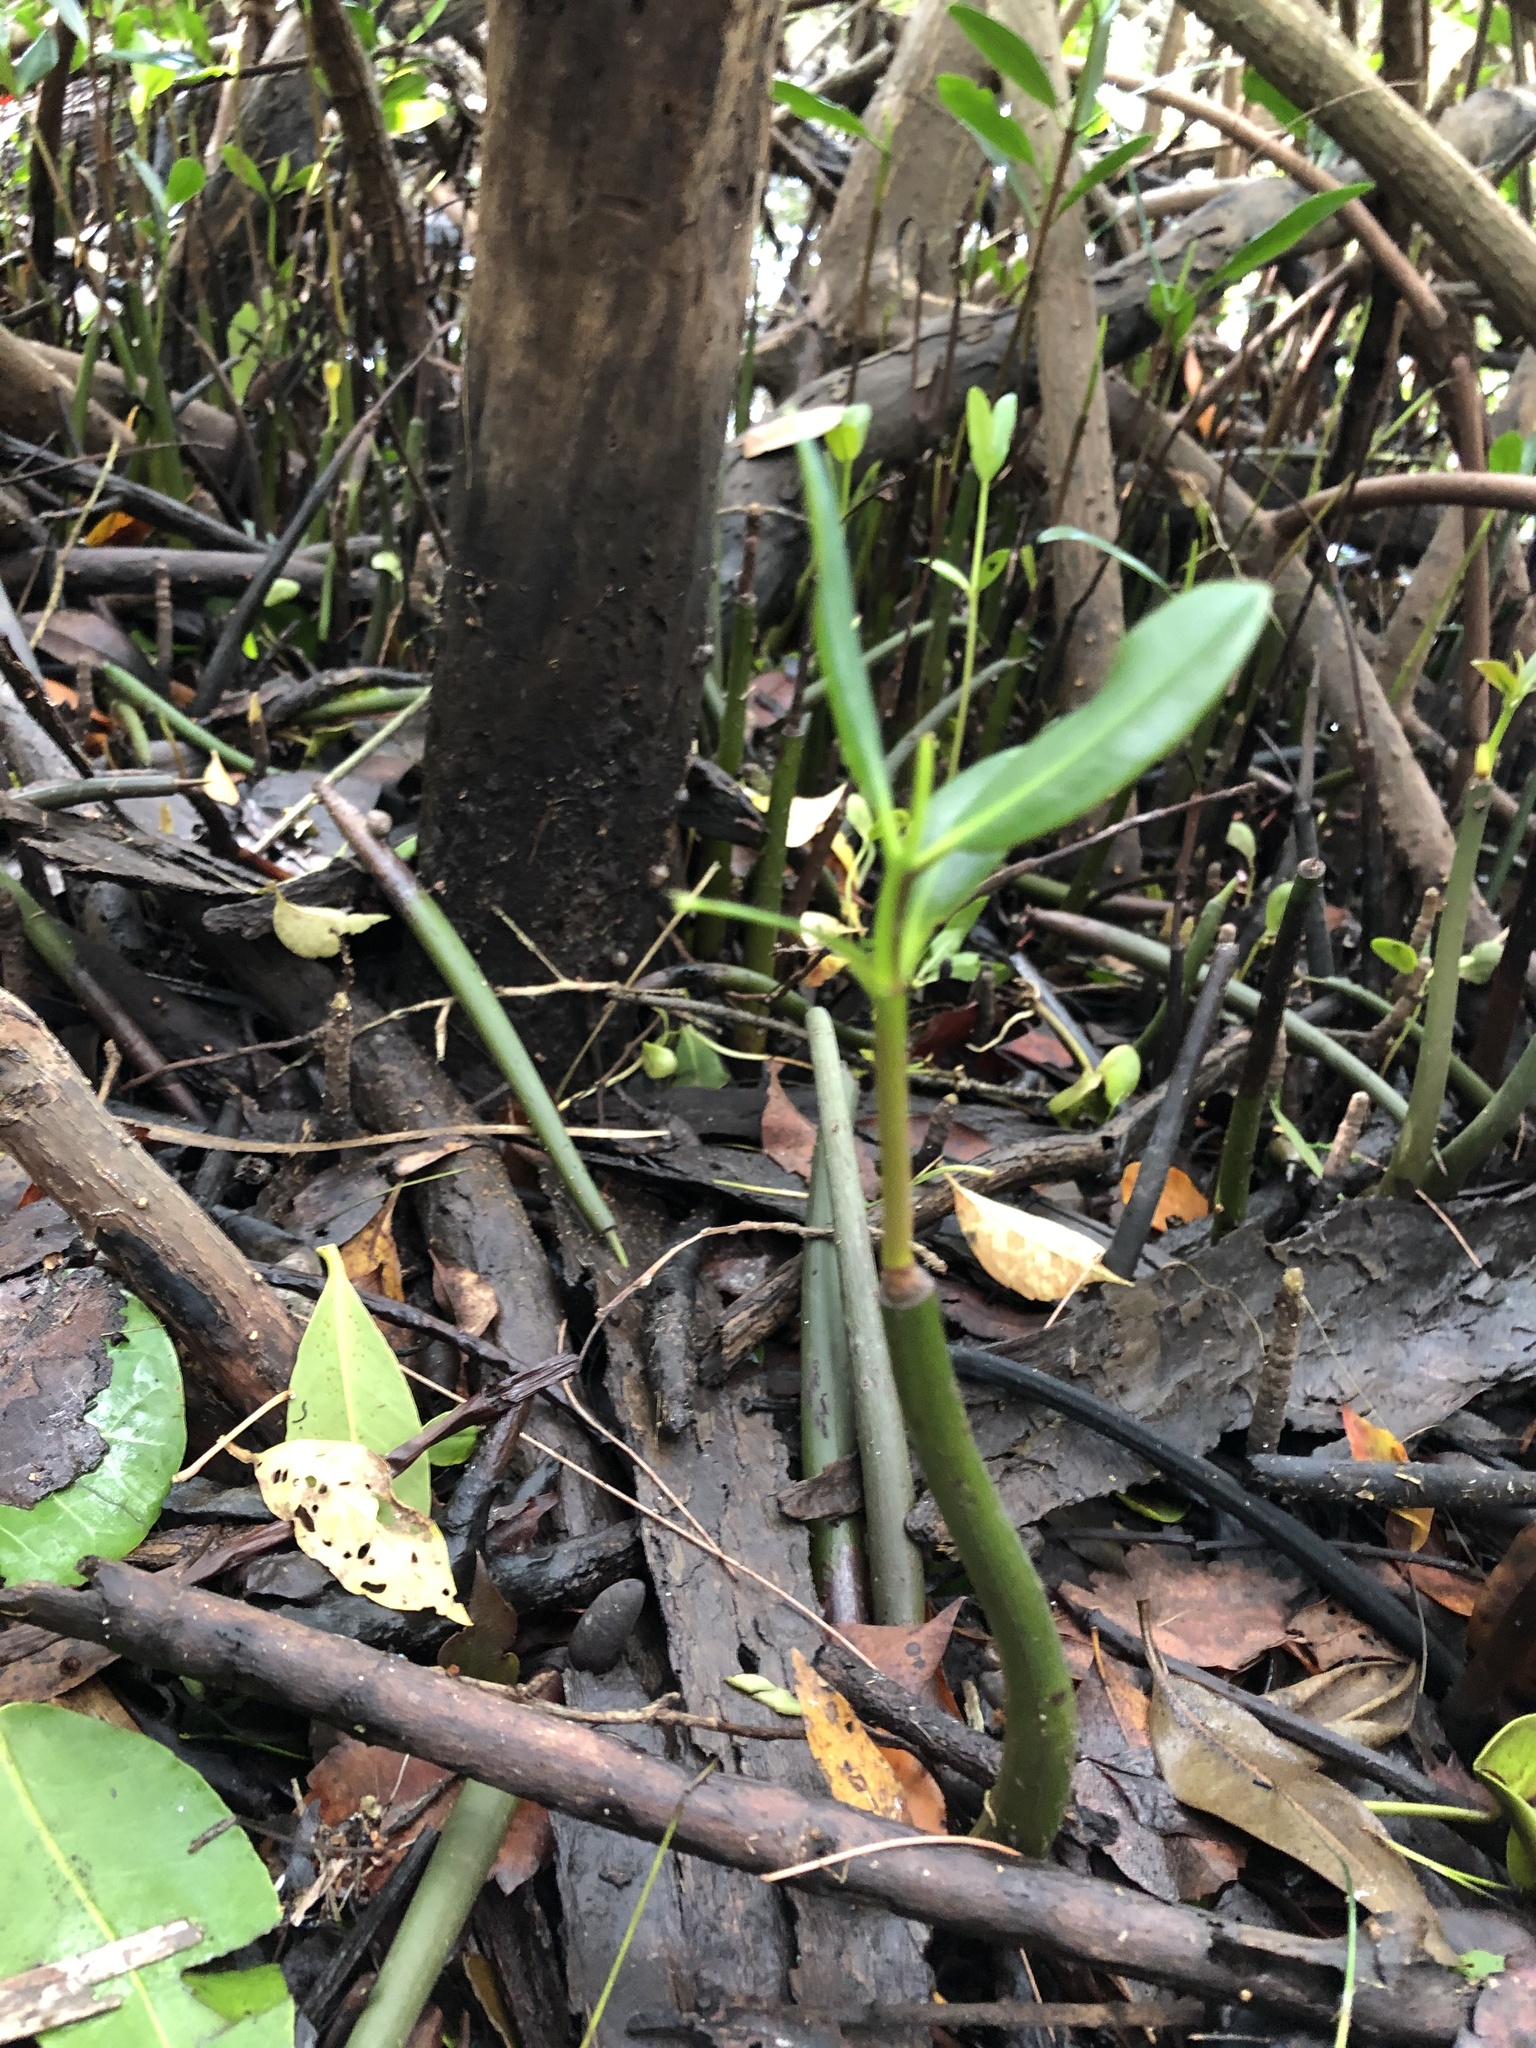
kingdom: Plantae
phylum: Tracheophyta
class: Magnoliopsida
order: Malpighiales
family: Rhizophoraceae
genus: Rhizophora
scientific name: Rhizophora mangle
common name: Red mangrove
